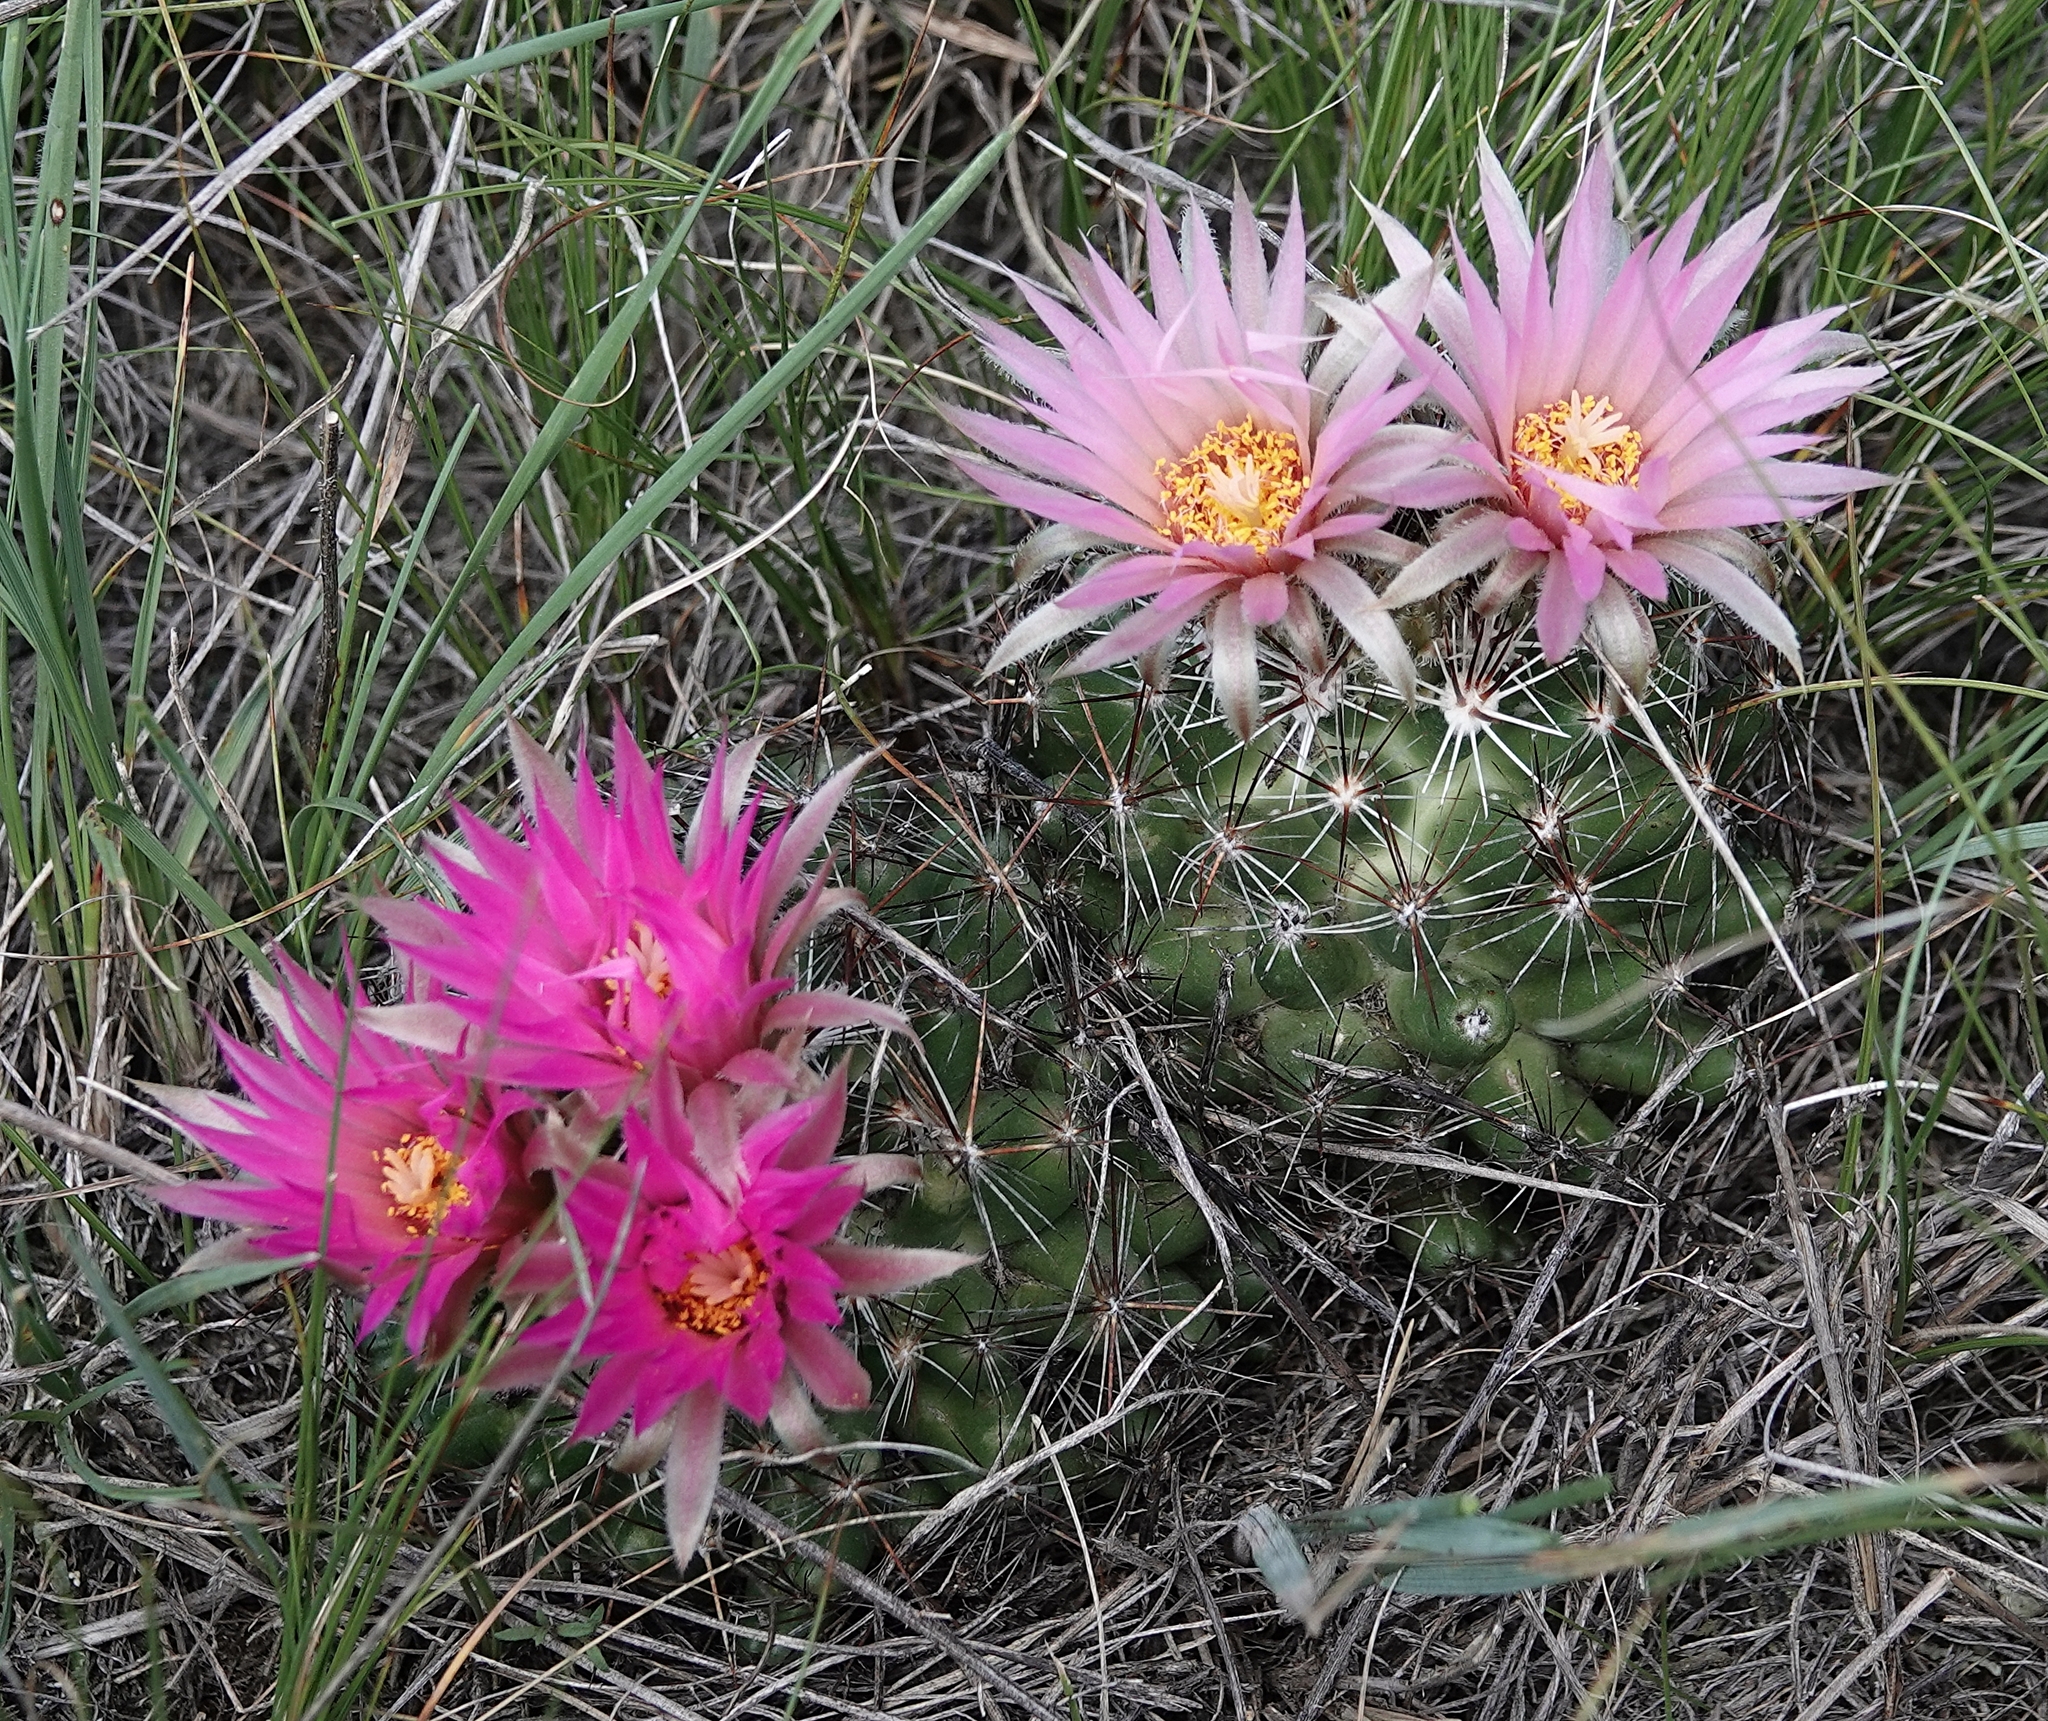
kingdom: Plantae
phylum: Tracheophyta
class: Magnoliopsida
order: Caryophyllales
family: Cactaceae
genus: Pelecyphora
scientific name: Pelecyphora vivipara
